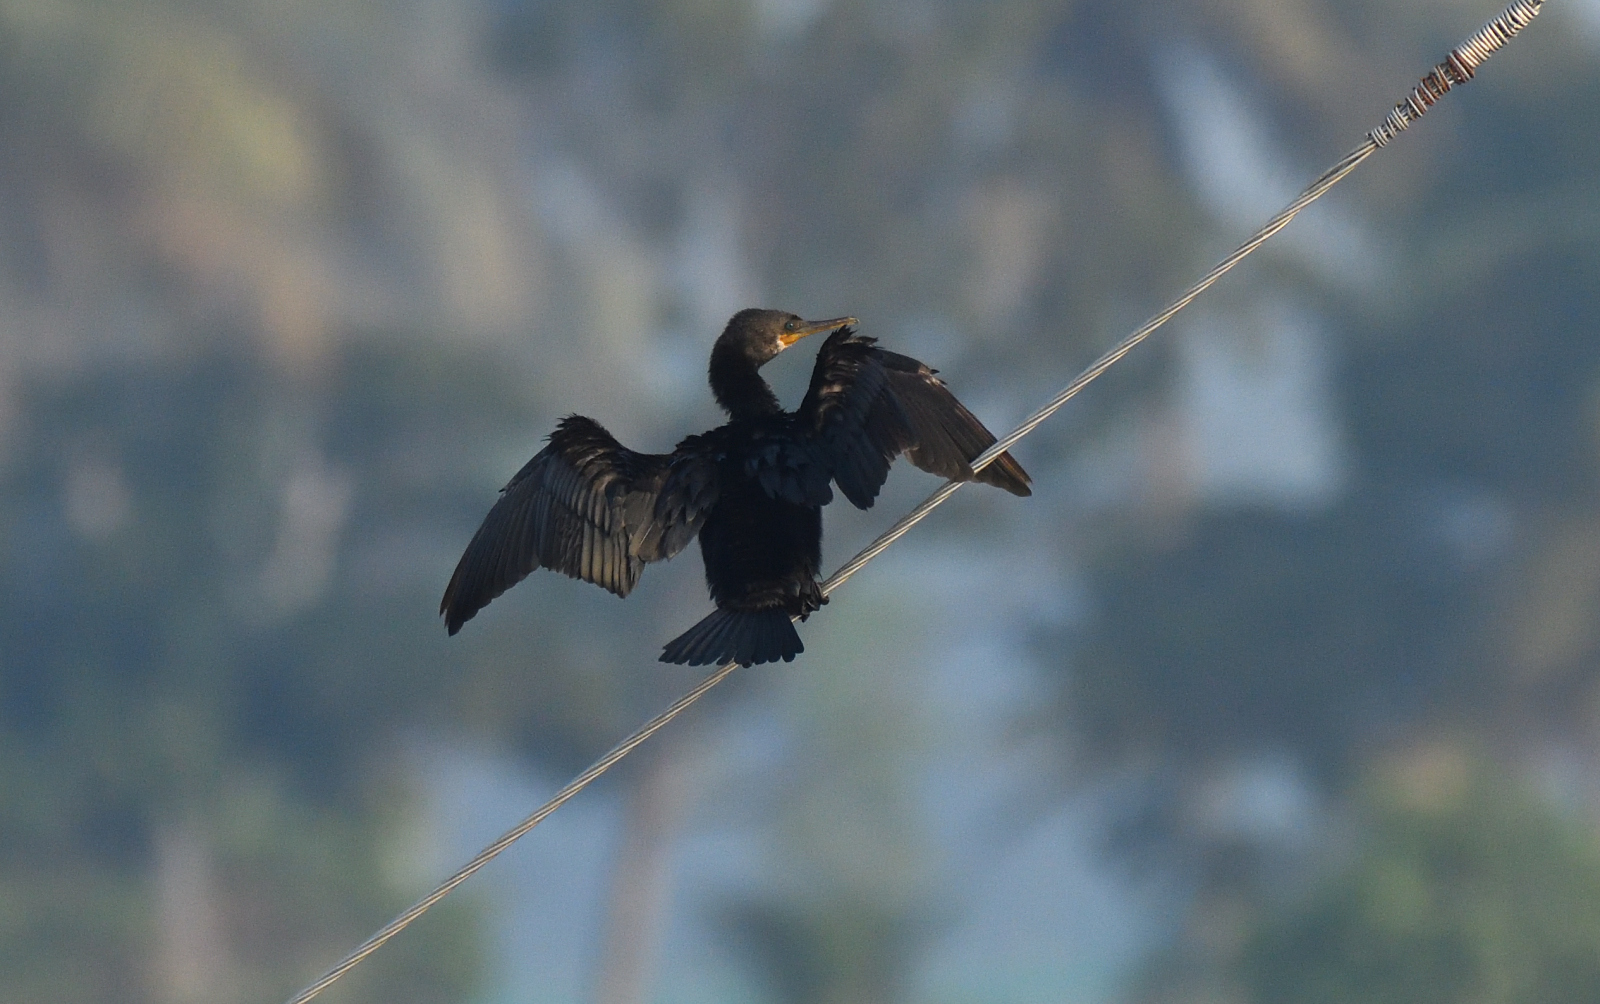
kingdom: Animalia
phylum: Chordata
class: Aves
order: Suliformes
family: Phalacrocoracidae
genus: Phalacrocorax
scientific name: Phalacrocorax carbo
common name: Great cormorant
